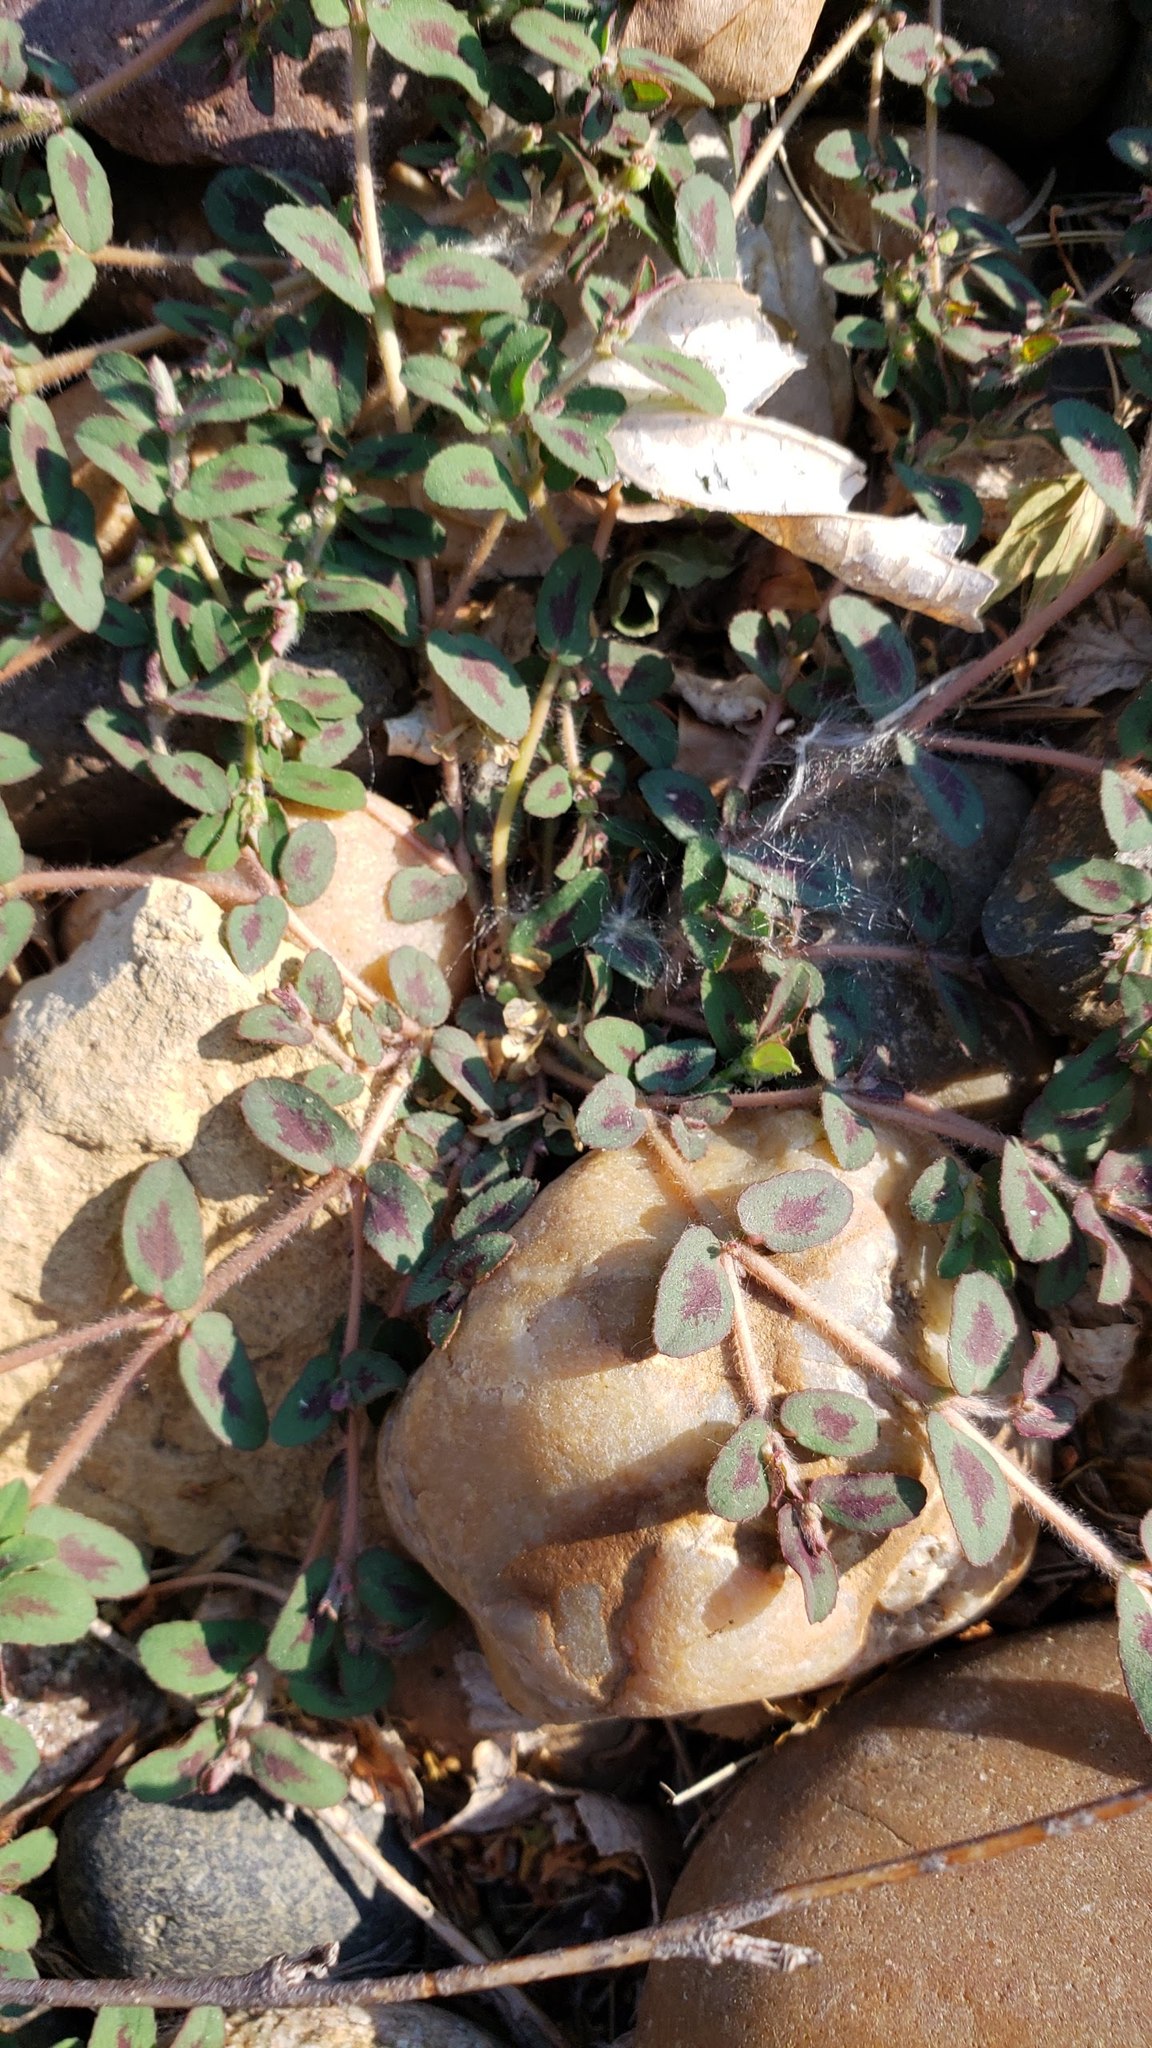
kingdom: Plantae
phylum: Tracheophyta
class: Magnoliopsida
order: Malpighiales
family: Euphorbiaceae
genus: Euphorbia
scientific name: Euphorbia maculata
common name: Spotted spurge
